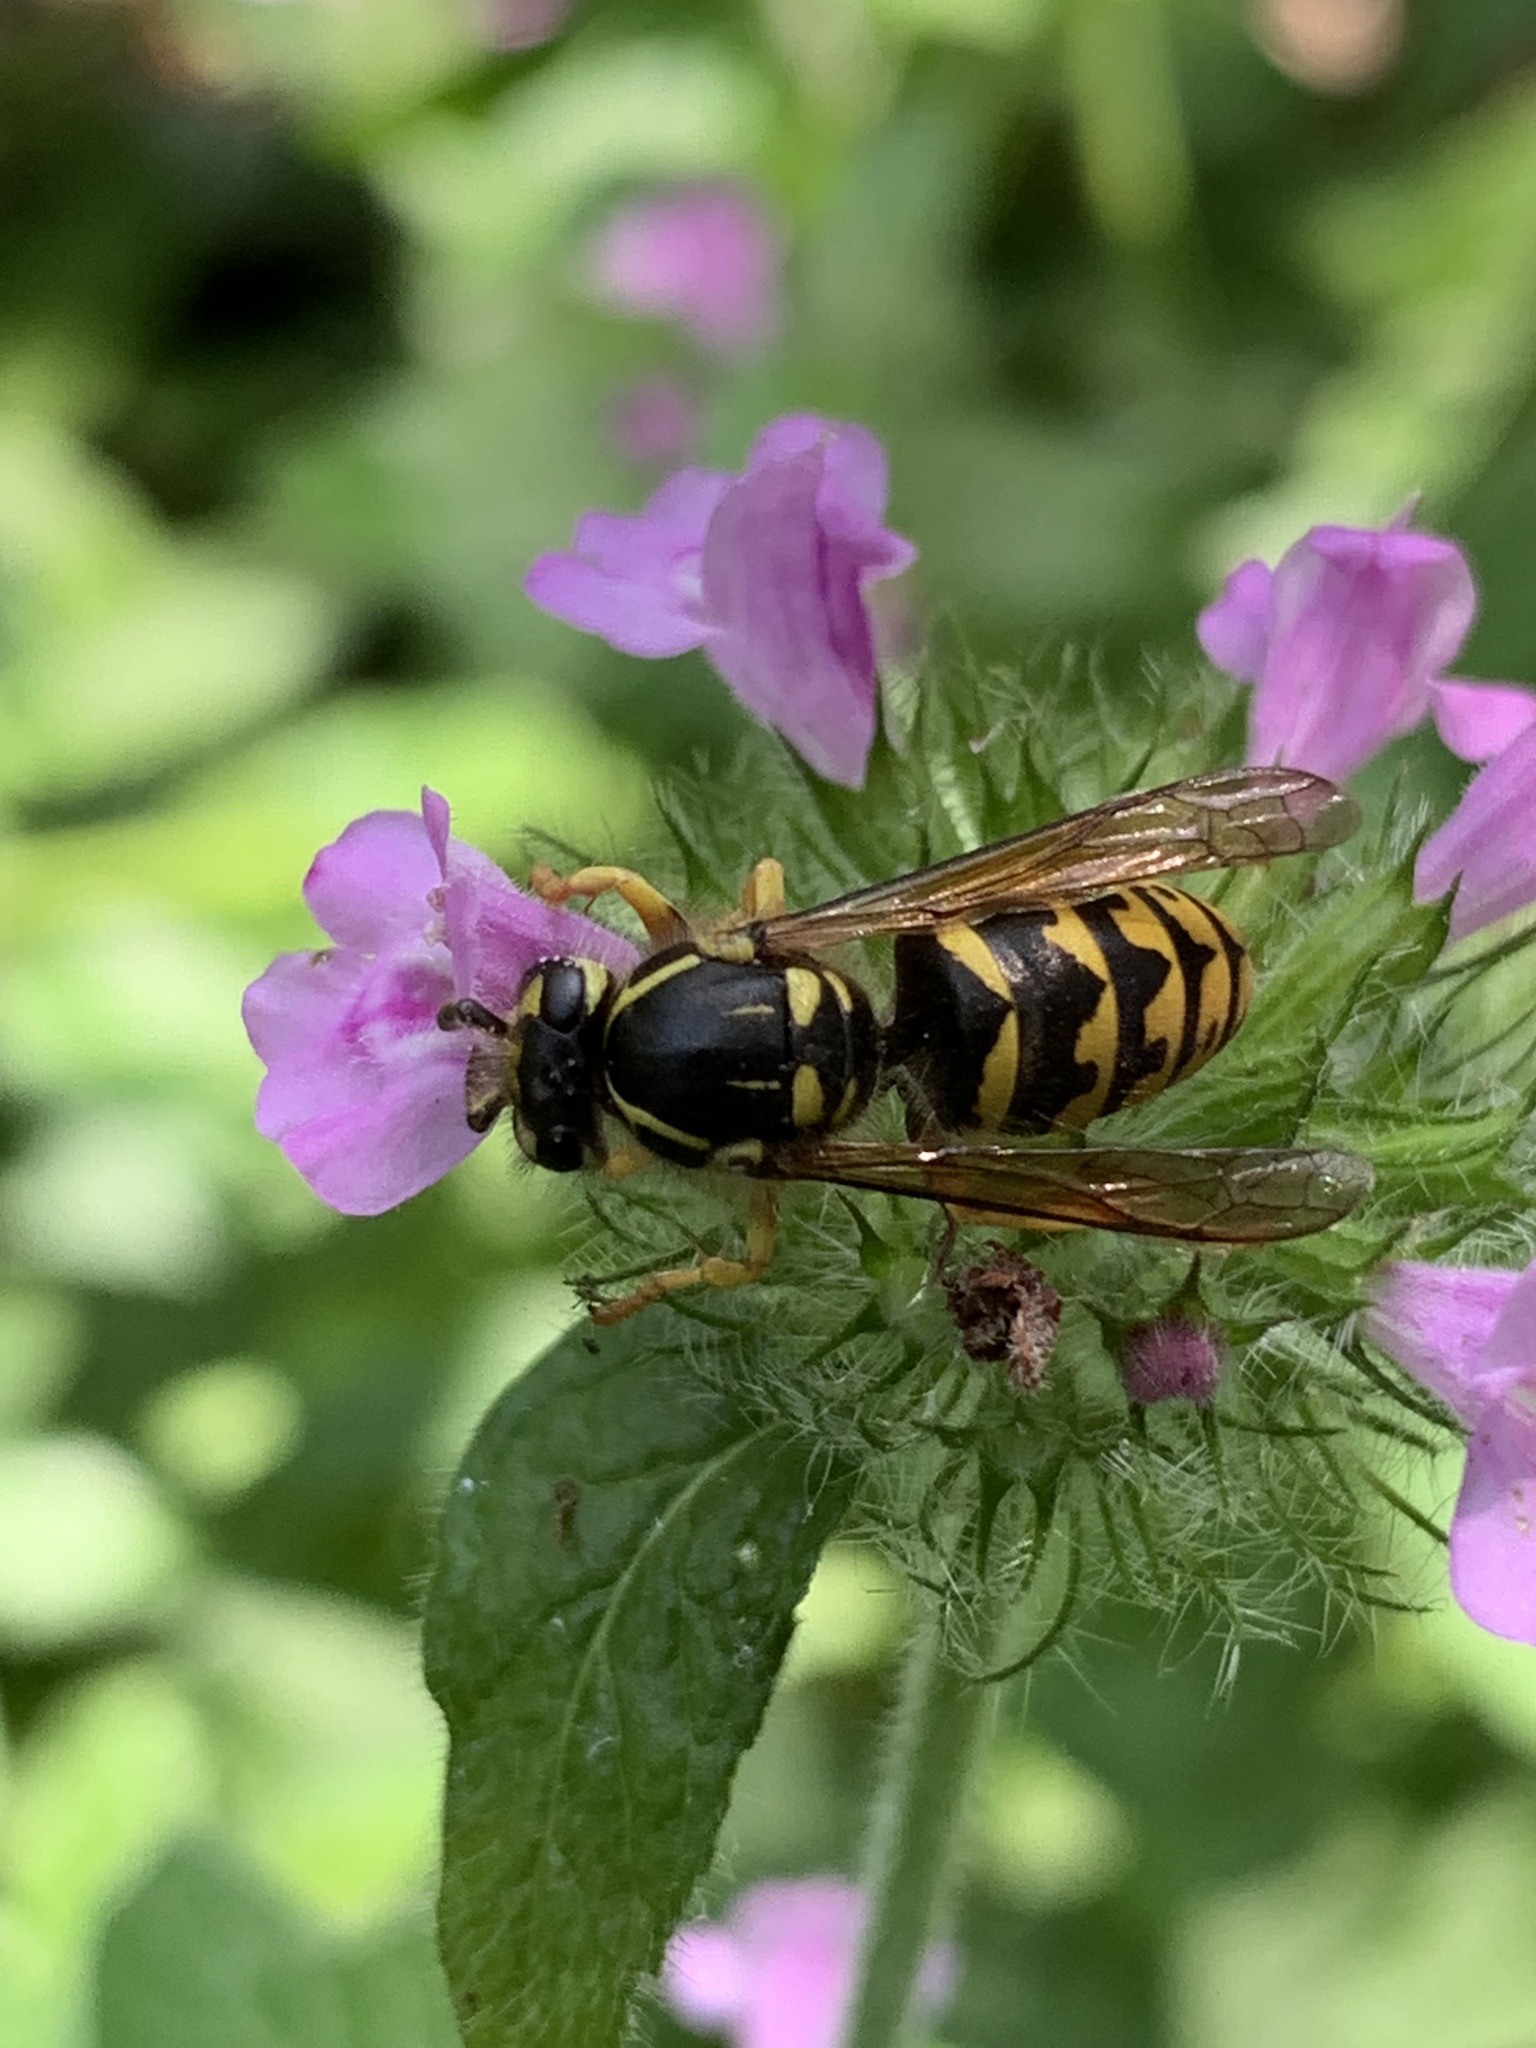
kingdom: Animalia
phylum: Arthropoda
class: Insecta
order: Hymenoptera
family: Vespidae
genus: Dolichovespula
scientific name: Dolichovespula arenaria
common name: Aerial yellowjacket
